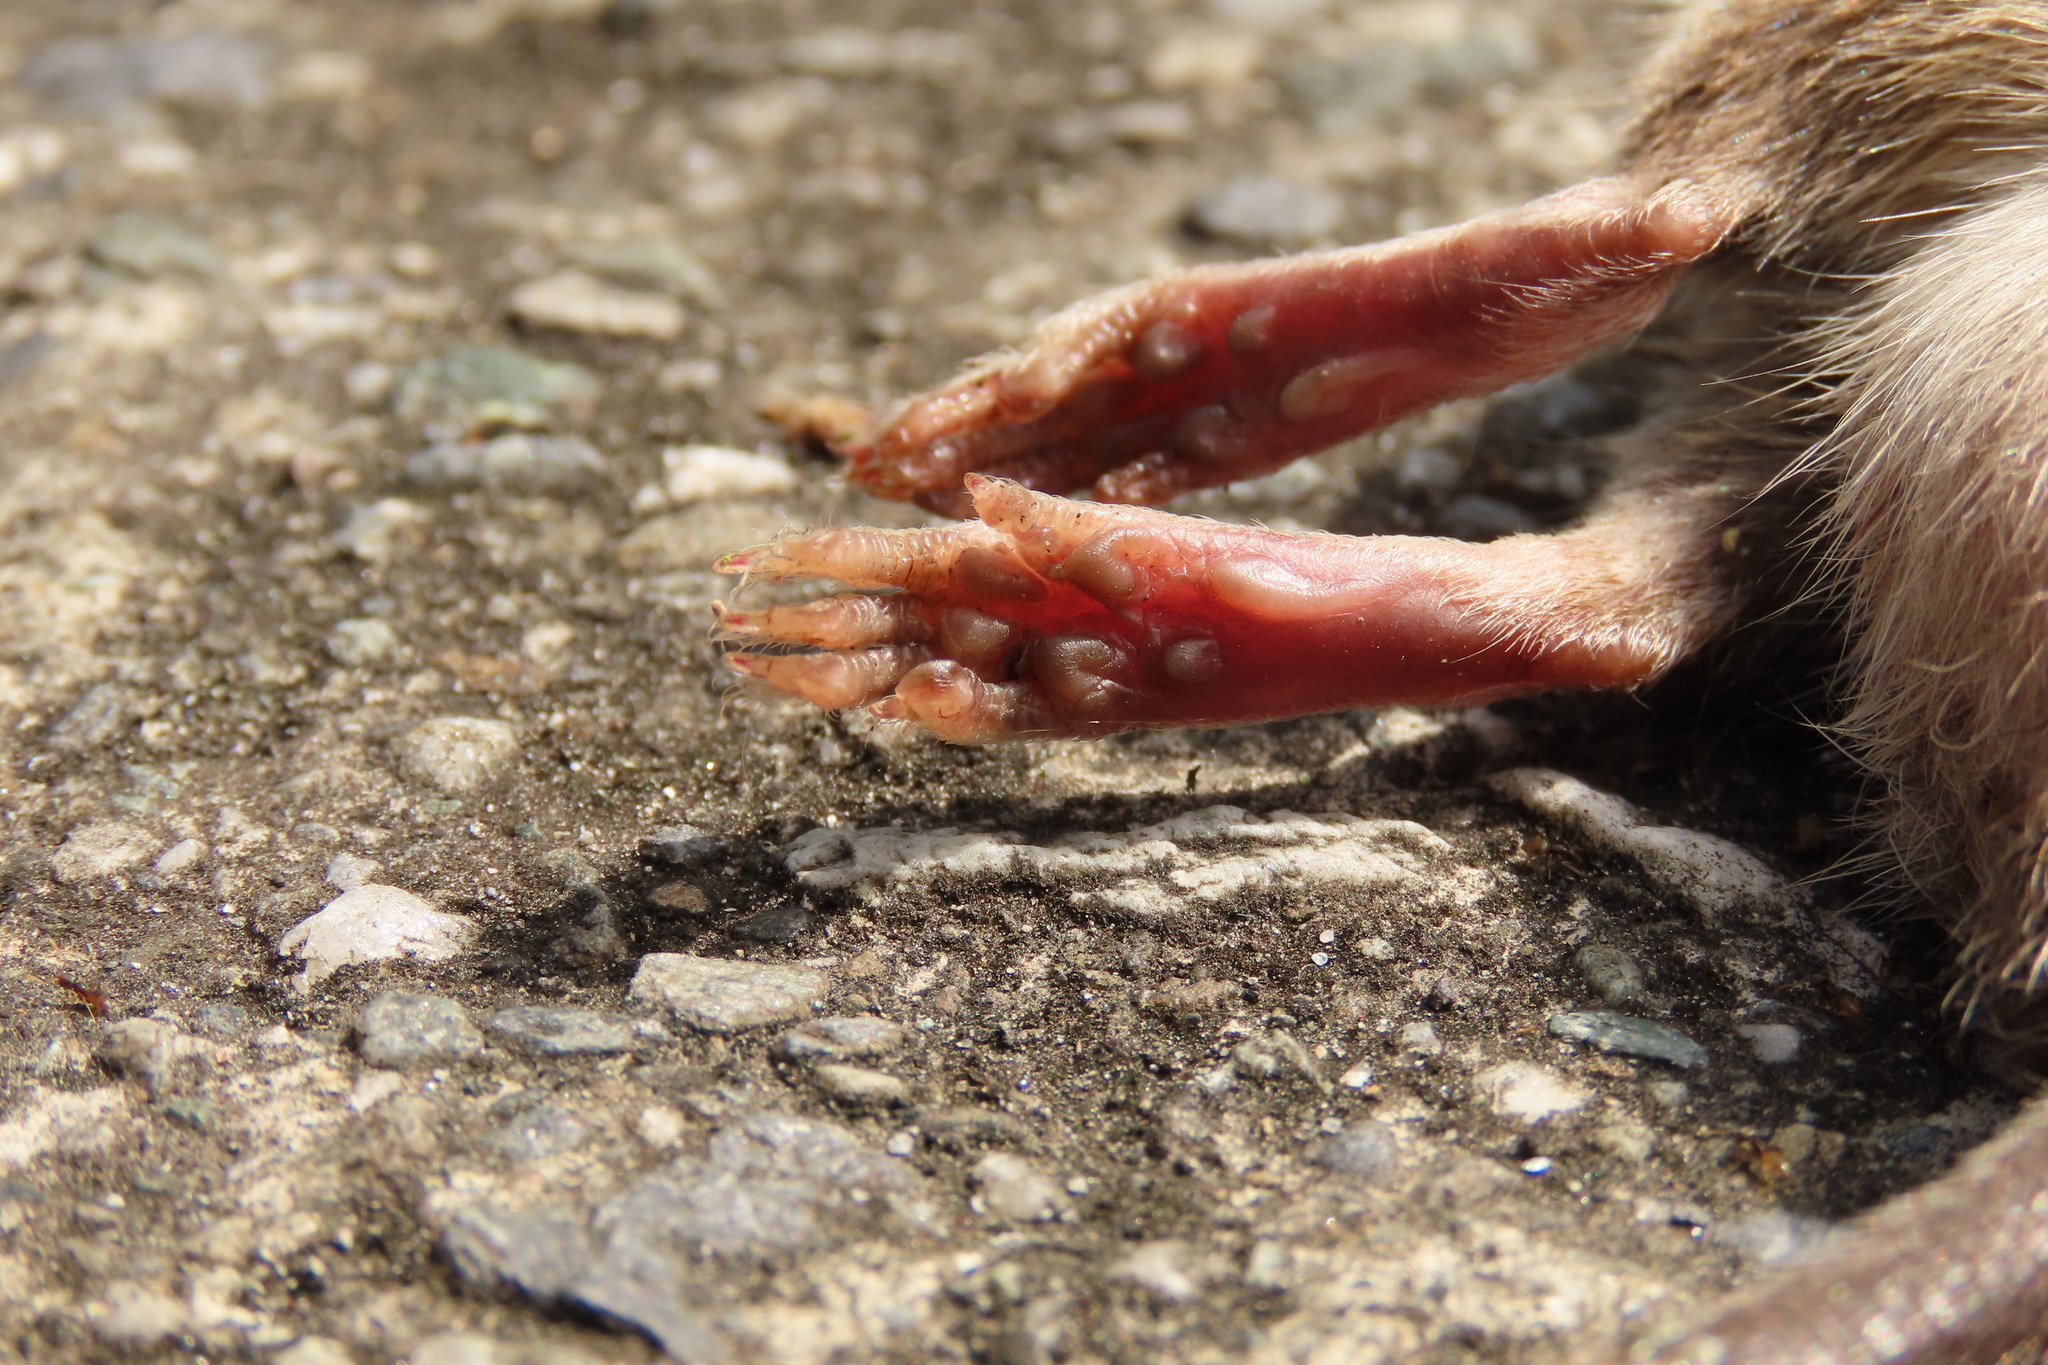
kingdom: Animalia
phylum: Chordata
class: Mammalia
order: Rodentia
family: Muridae
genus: Rattus
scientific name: Rattus losea
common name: Losea rat
